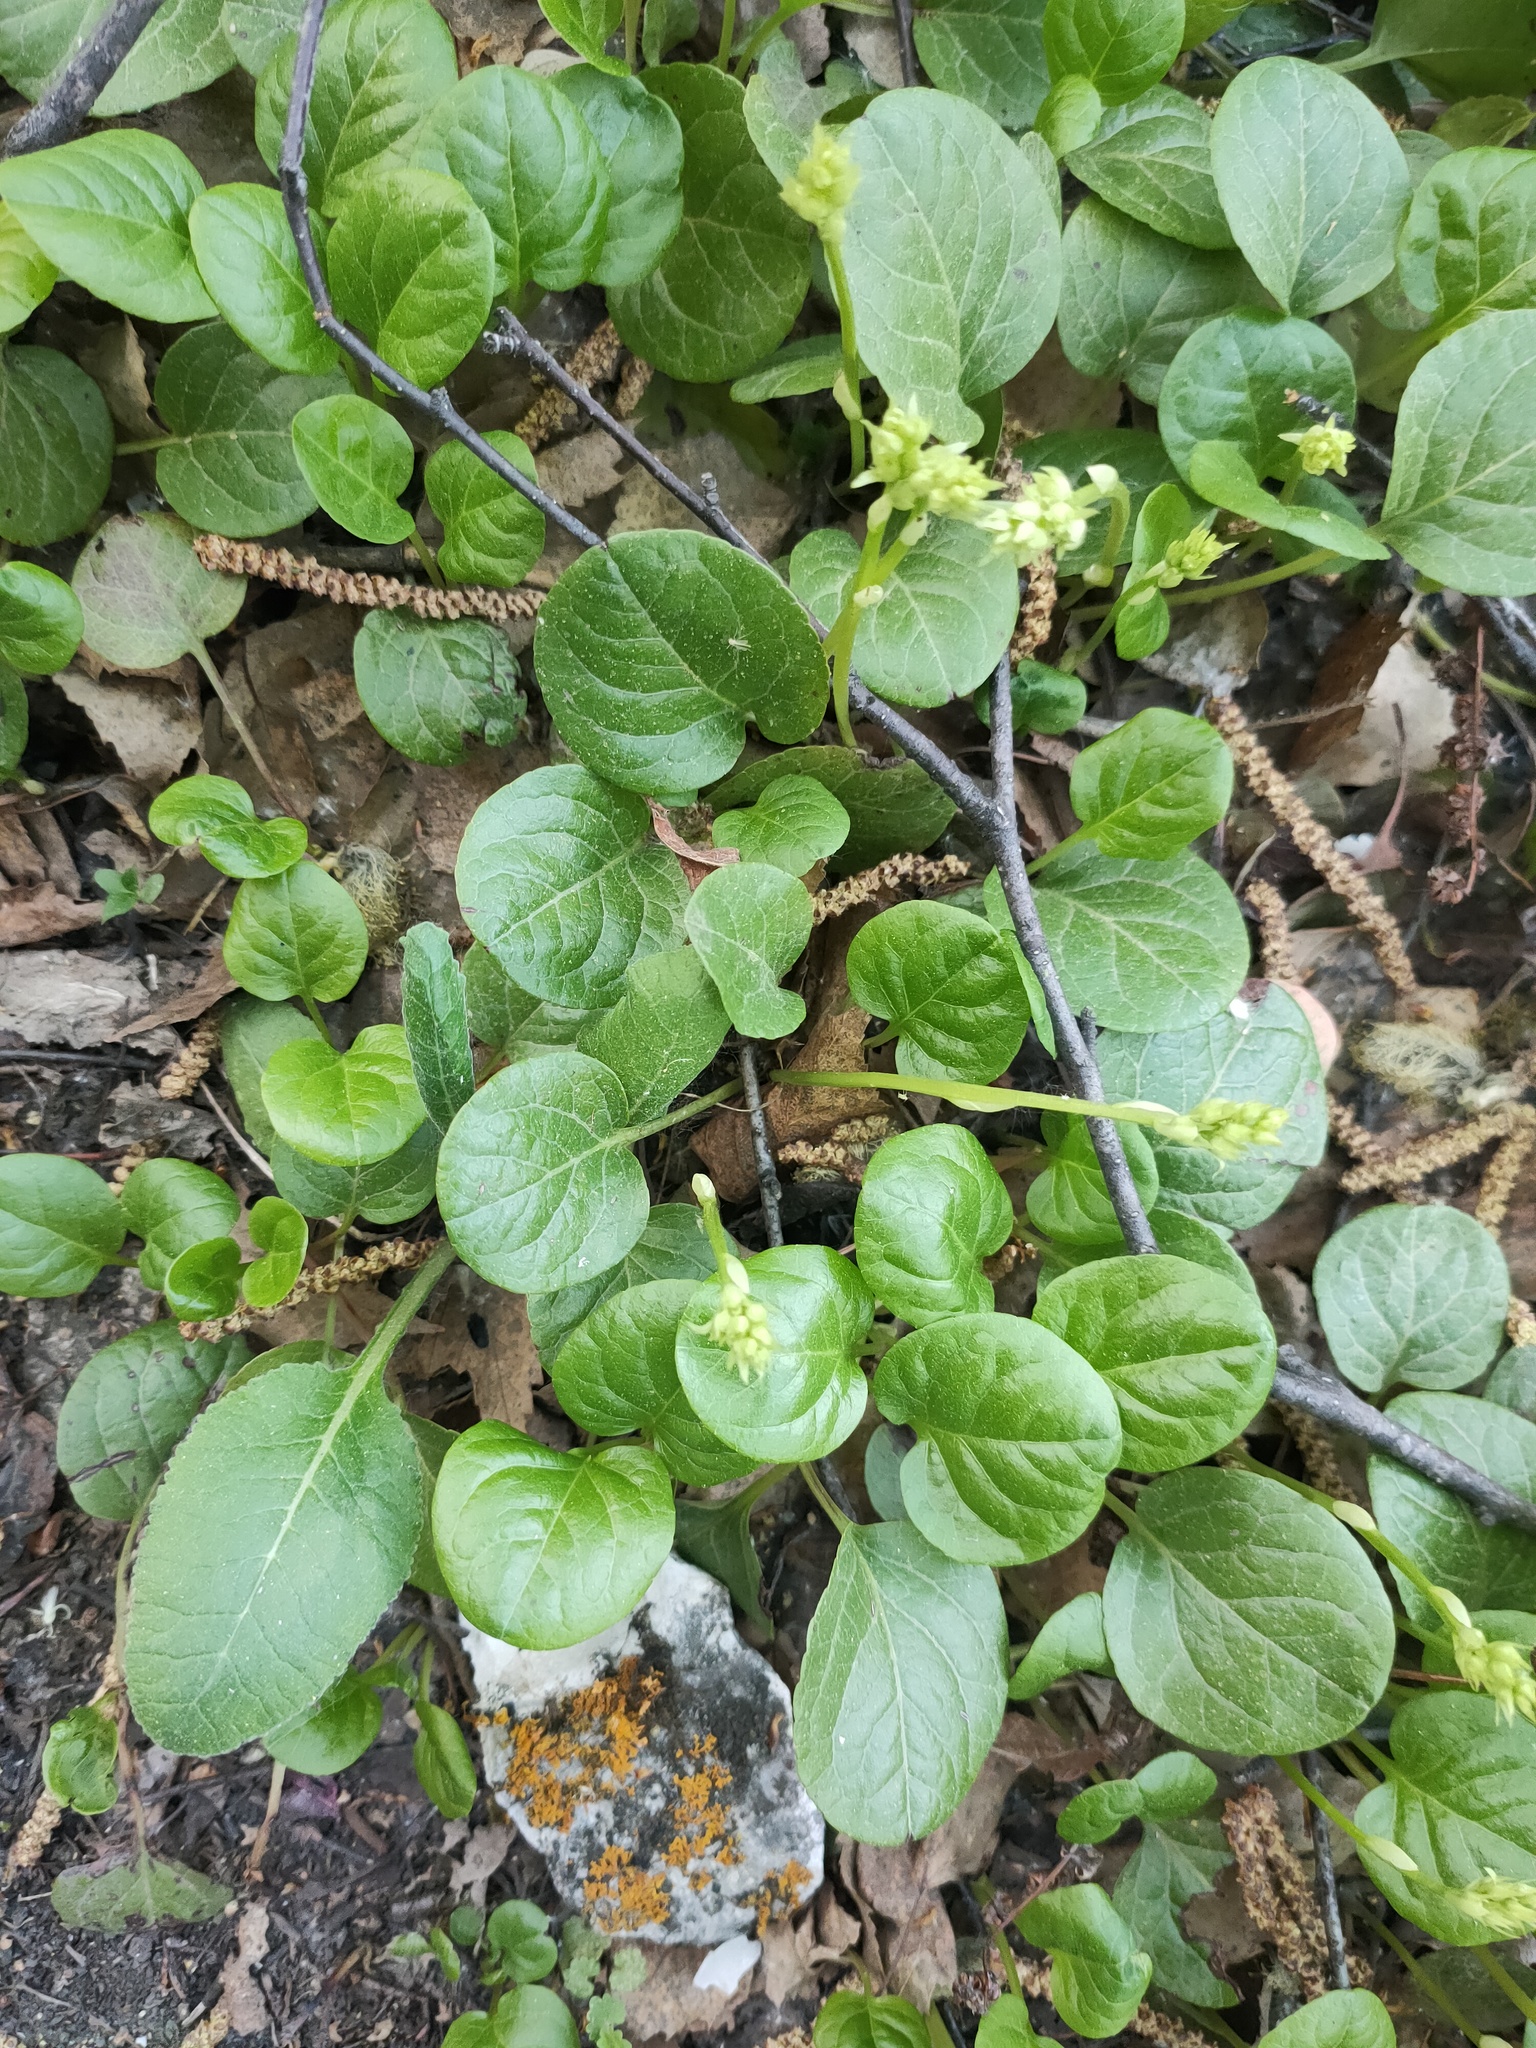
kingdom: Plantae
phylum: Tracheophyta
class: Magnoliopsida
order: Ericales
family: Ericaceae
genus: Pyrola
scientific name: Pyrola rotundifolia
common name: Round-leaved wintergreen
